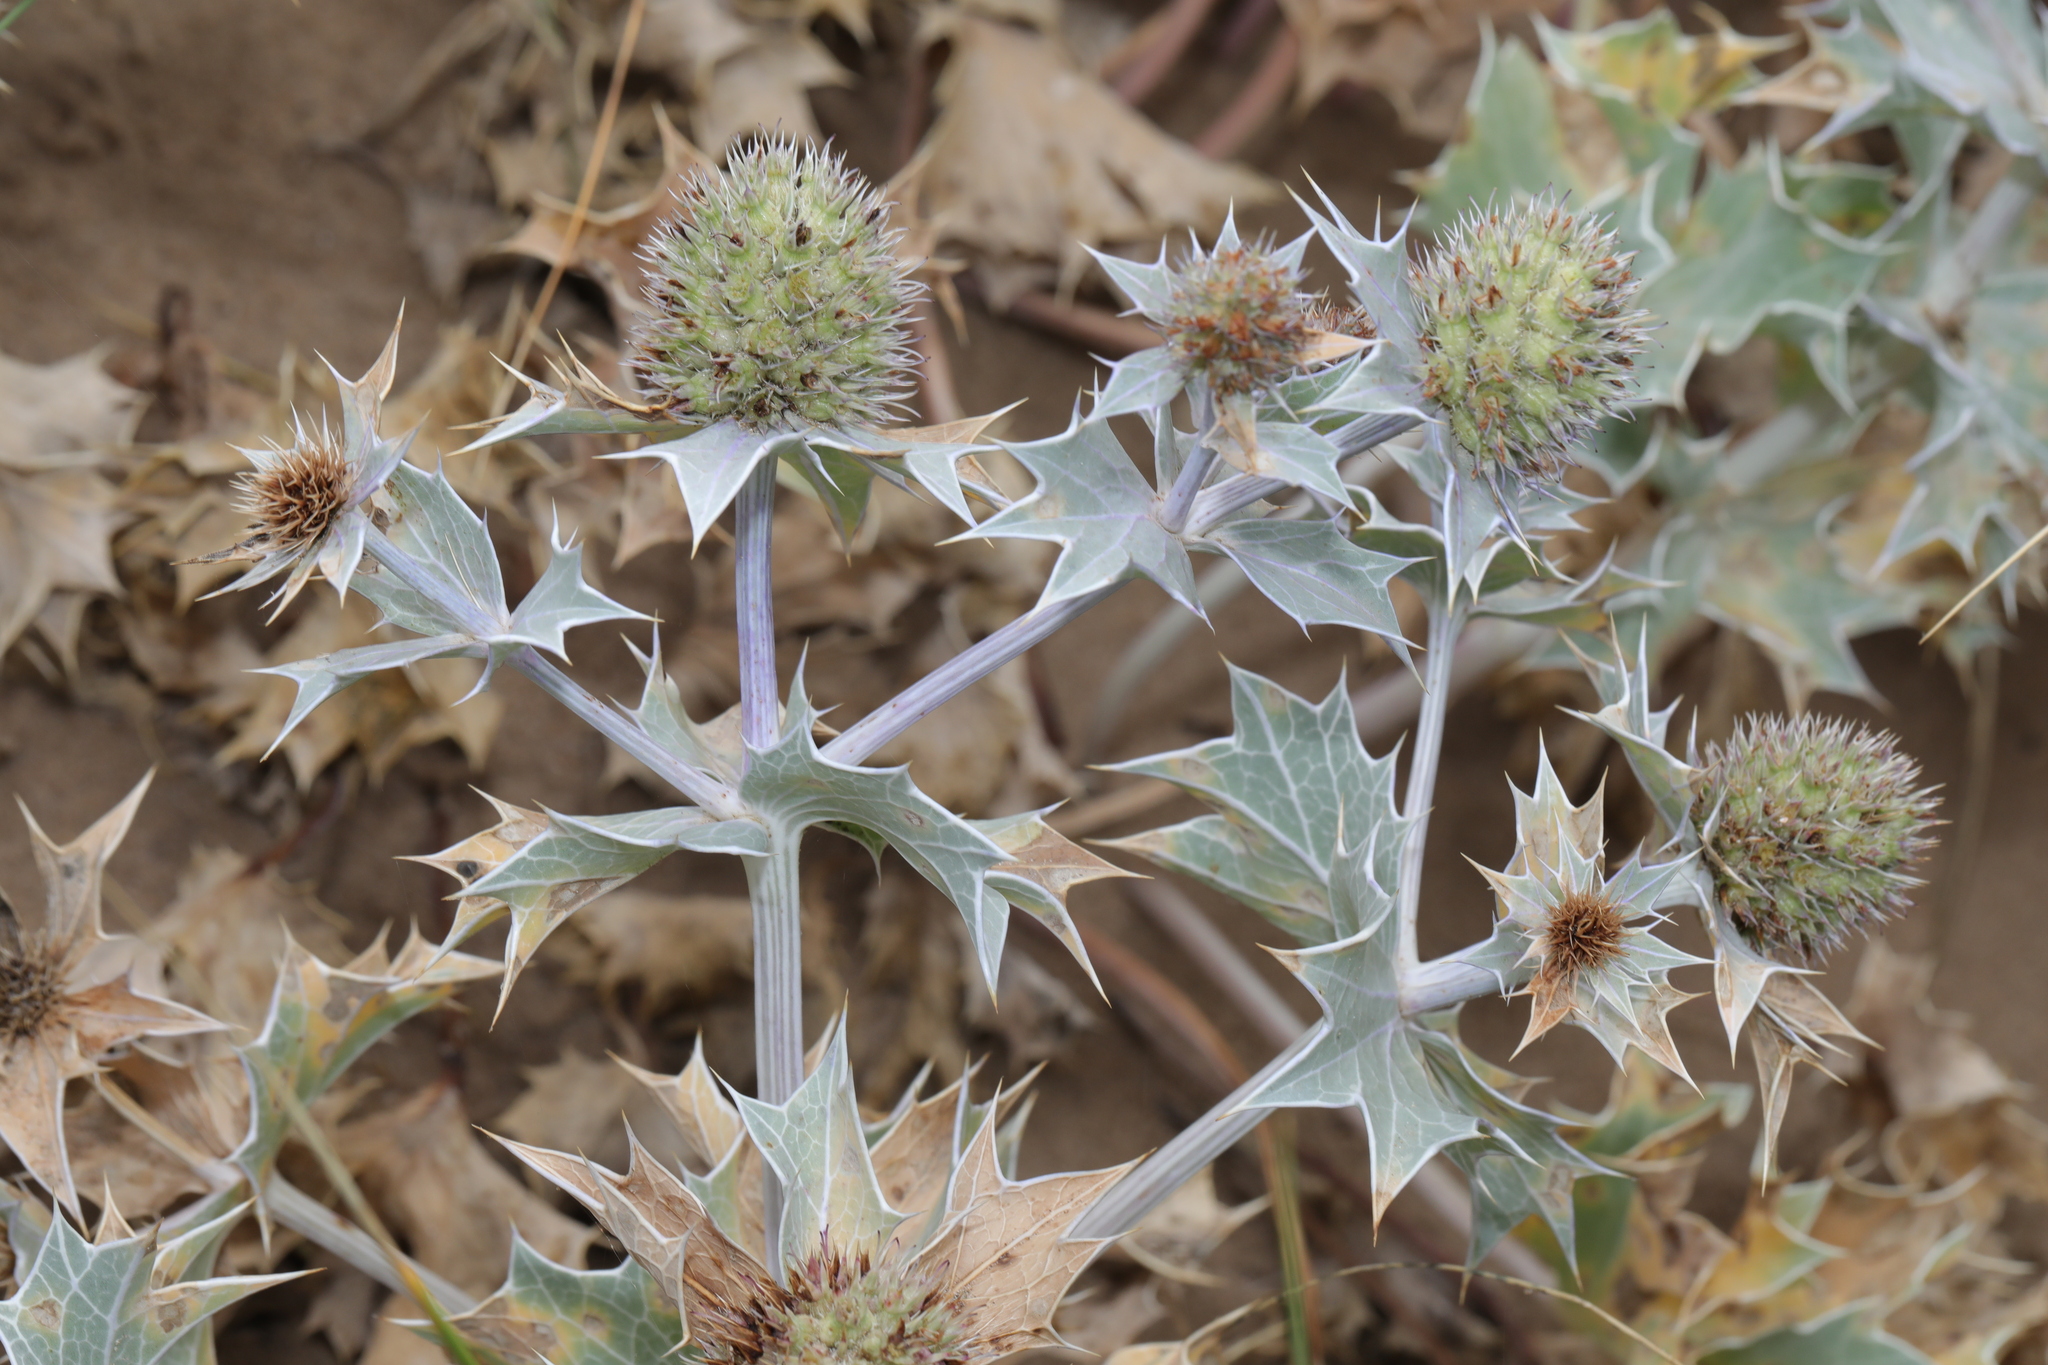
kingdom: Plantae
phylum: Tracheophyta
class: Magnoliopsida
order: Apiales
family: Apiaceae
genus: Eryngium
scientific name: Eryngium maritimum
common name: Sea-holly
